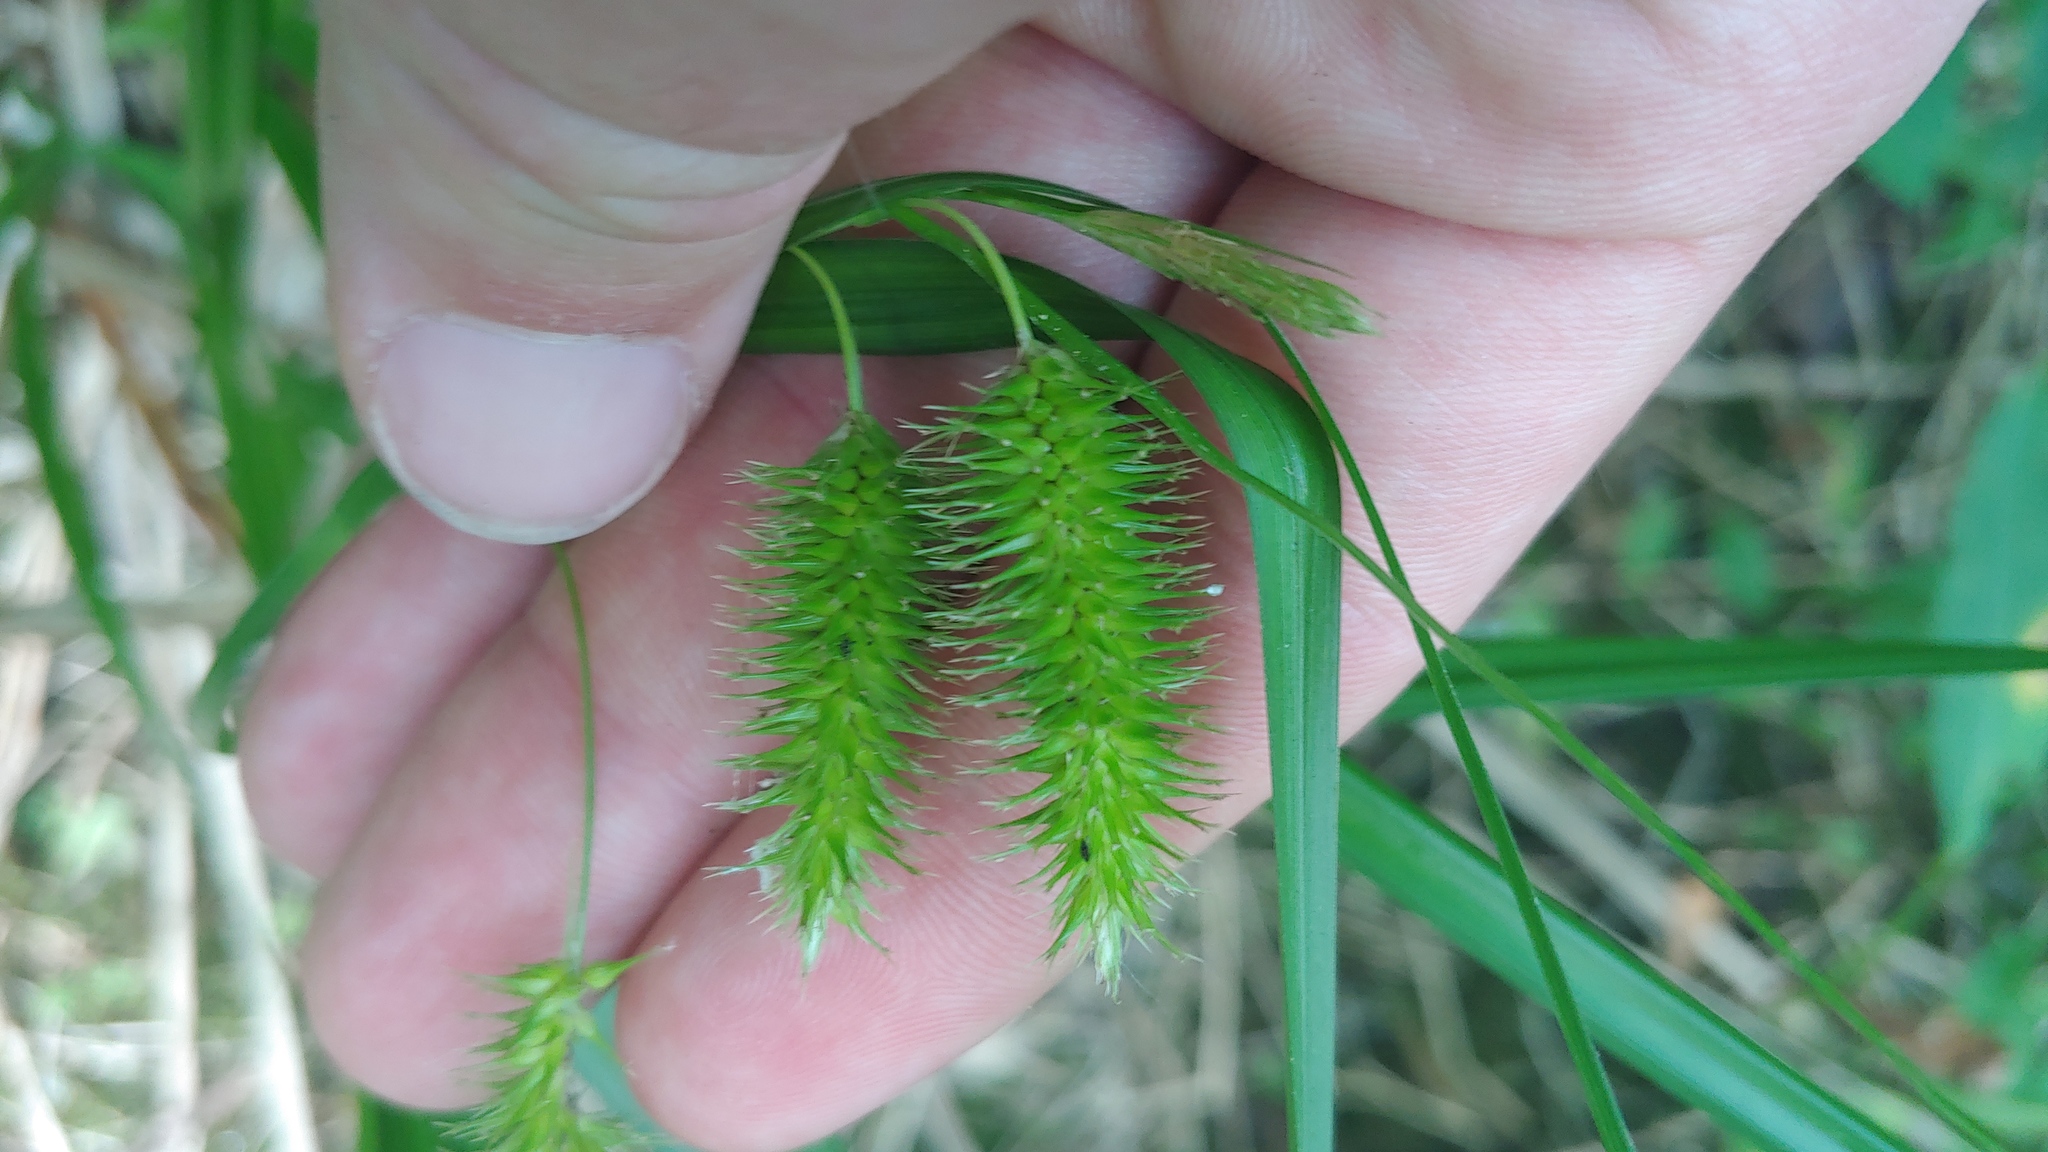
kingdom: Plantae
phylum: Tracheophyta
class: Liliopsida
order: Poales
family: Cyperaceae
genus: Carex
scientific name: Carex comosa
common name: Bristly sedge
